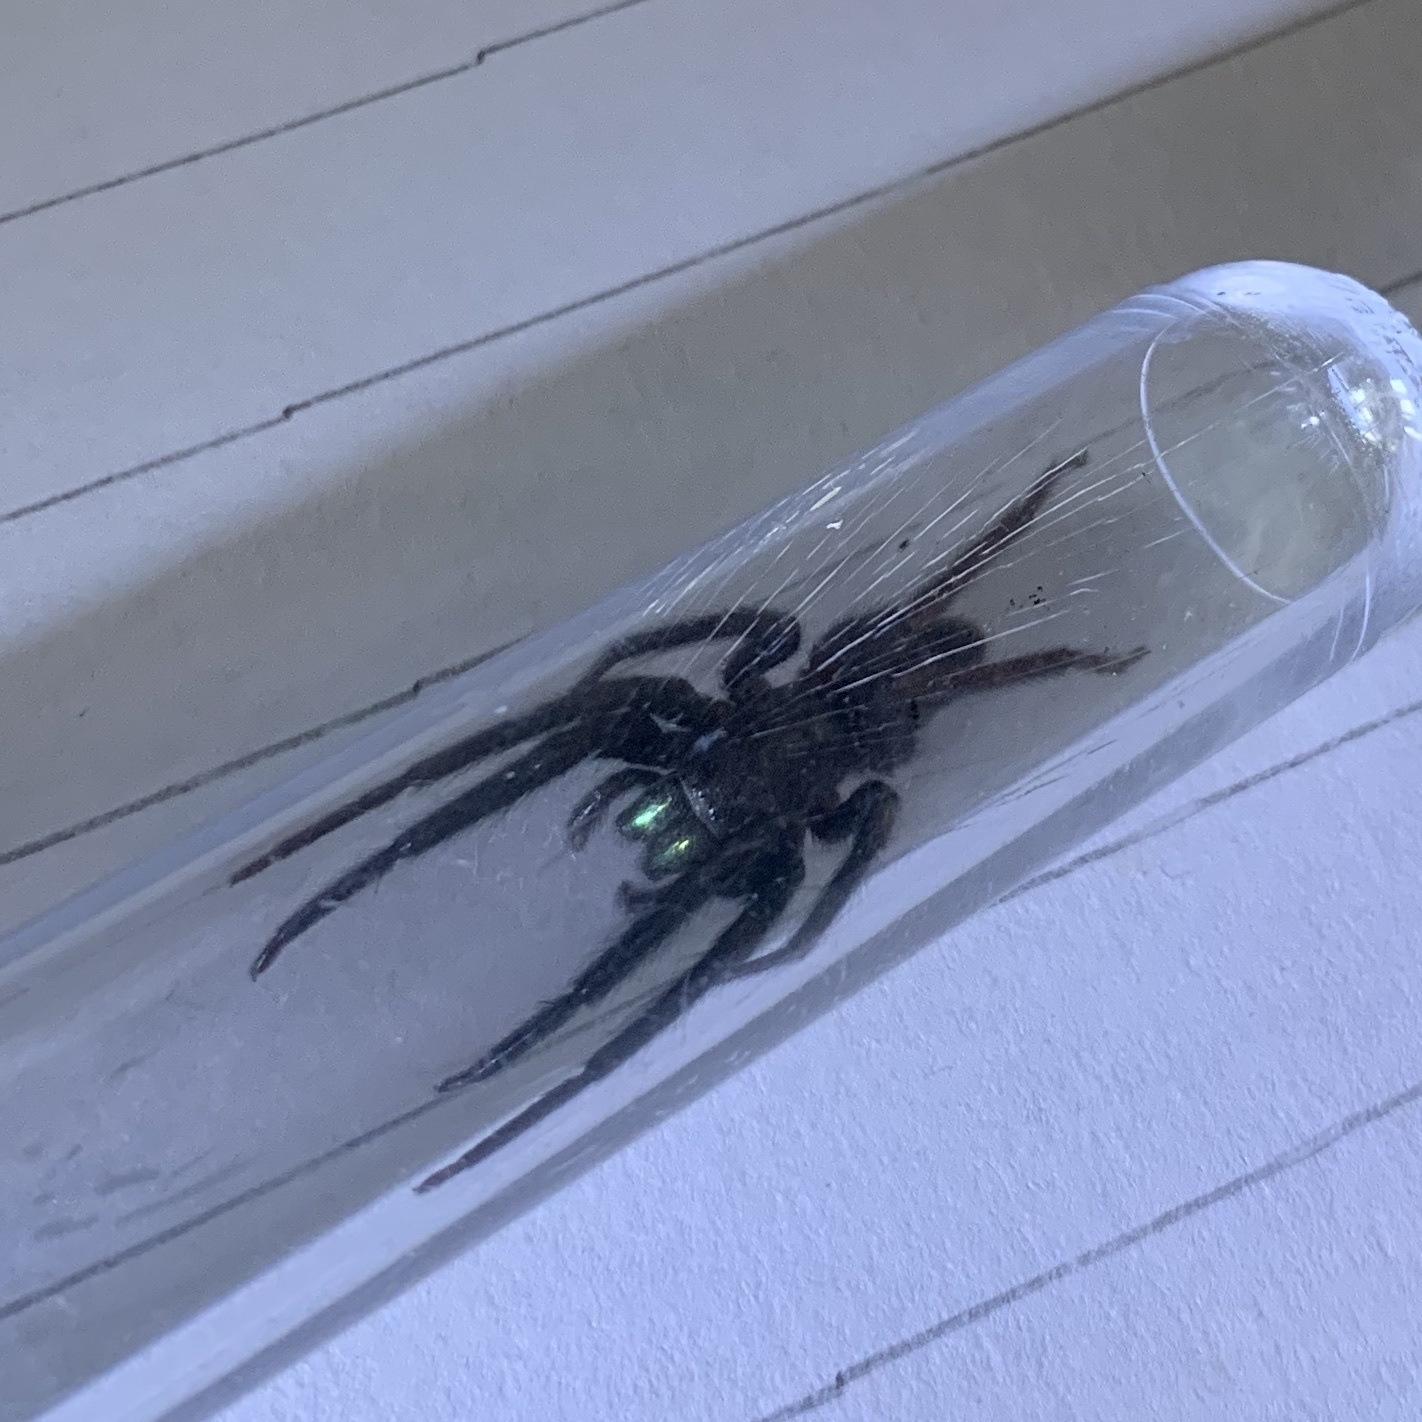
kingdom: Animalia
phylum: Arthropoda
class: Arachnida
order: Araneae
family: Segestriidae
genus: Segestria
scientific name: Segestria florentina
